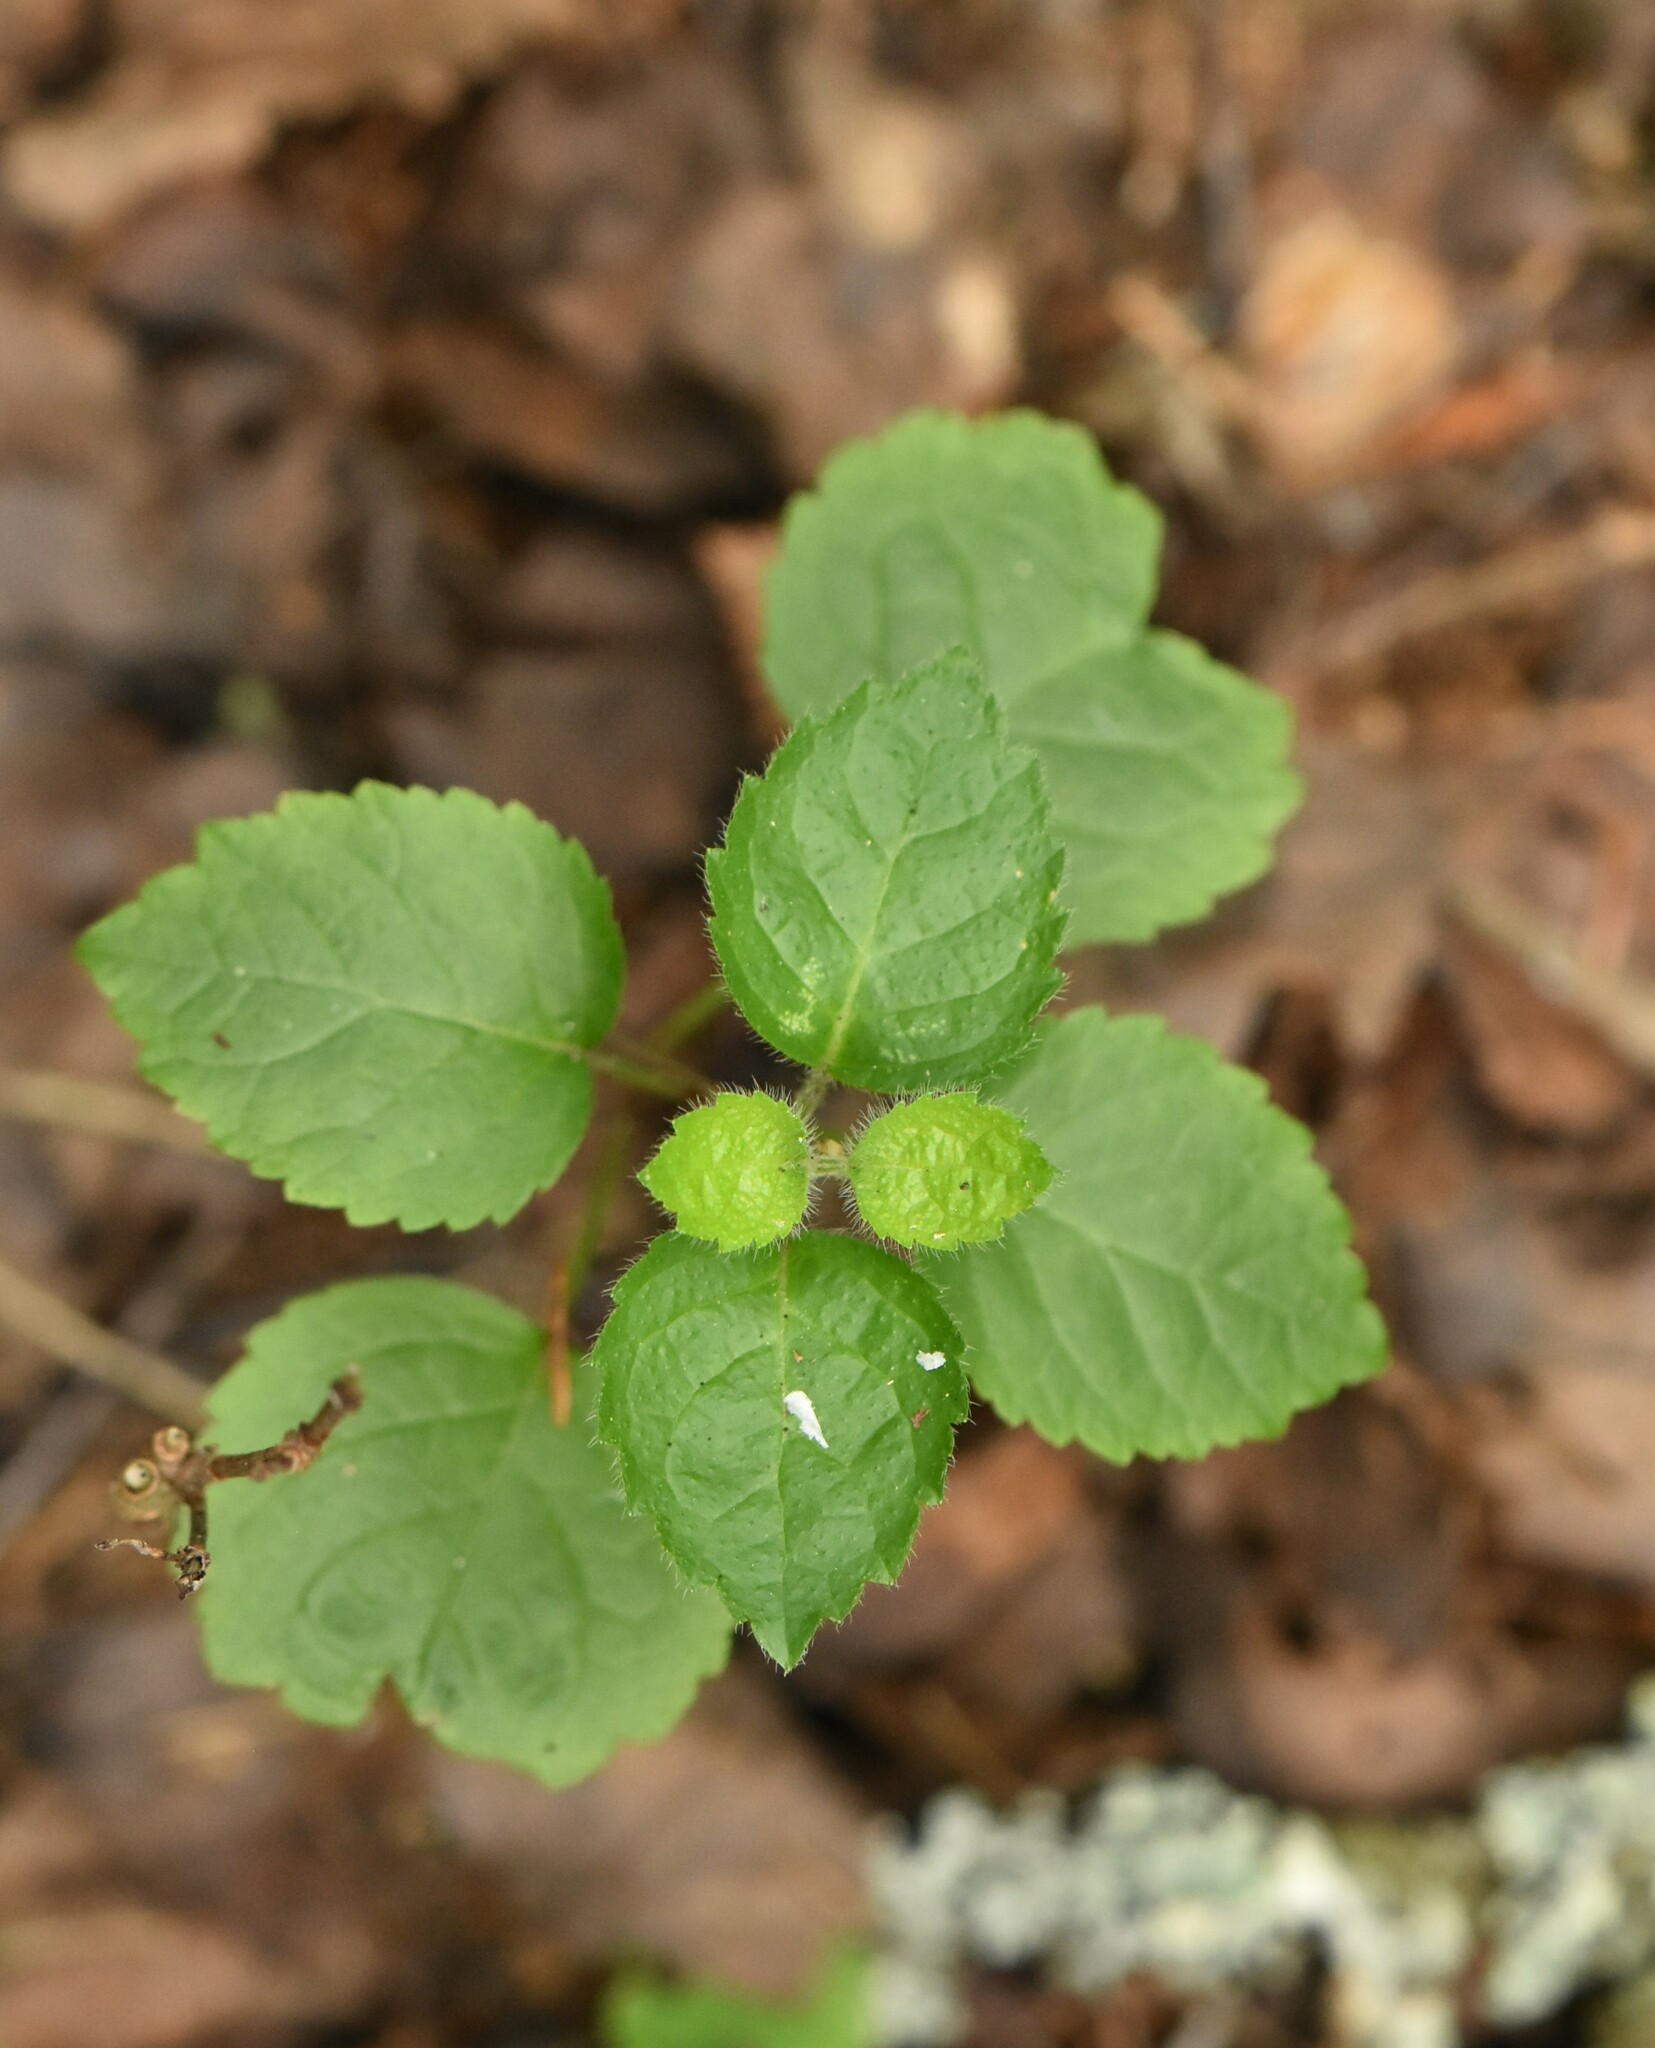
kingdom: Plantae
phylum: Tracheophyta
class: Magnoliopsida
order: Lamiales
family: Lamiaceae
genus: Lamium
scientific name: Lamium galeobdolon
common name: Yellow archangel
